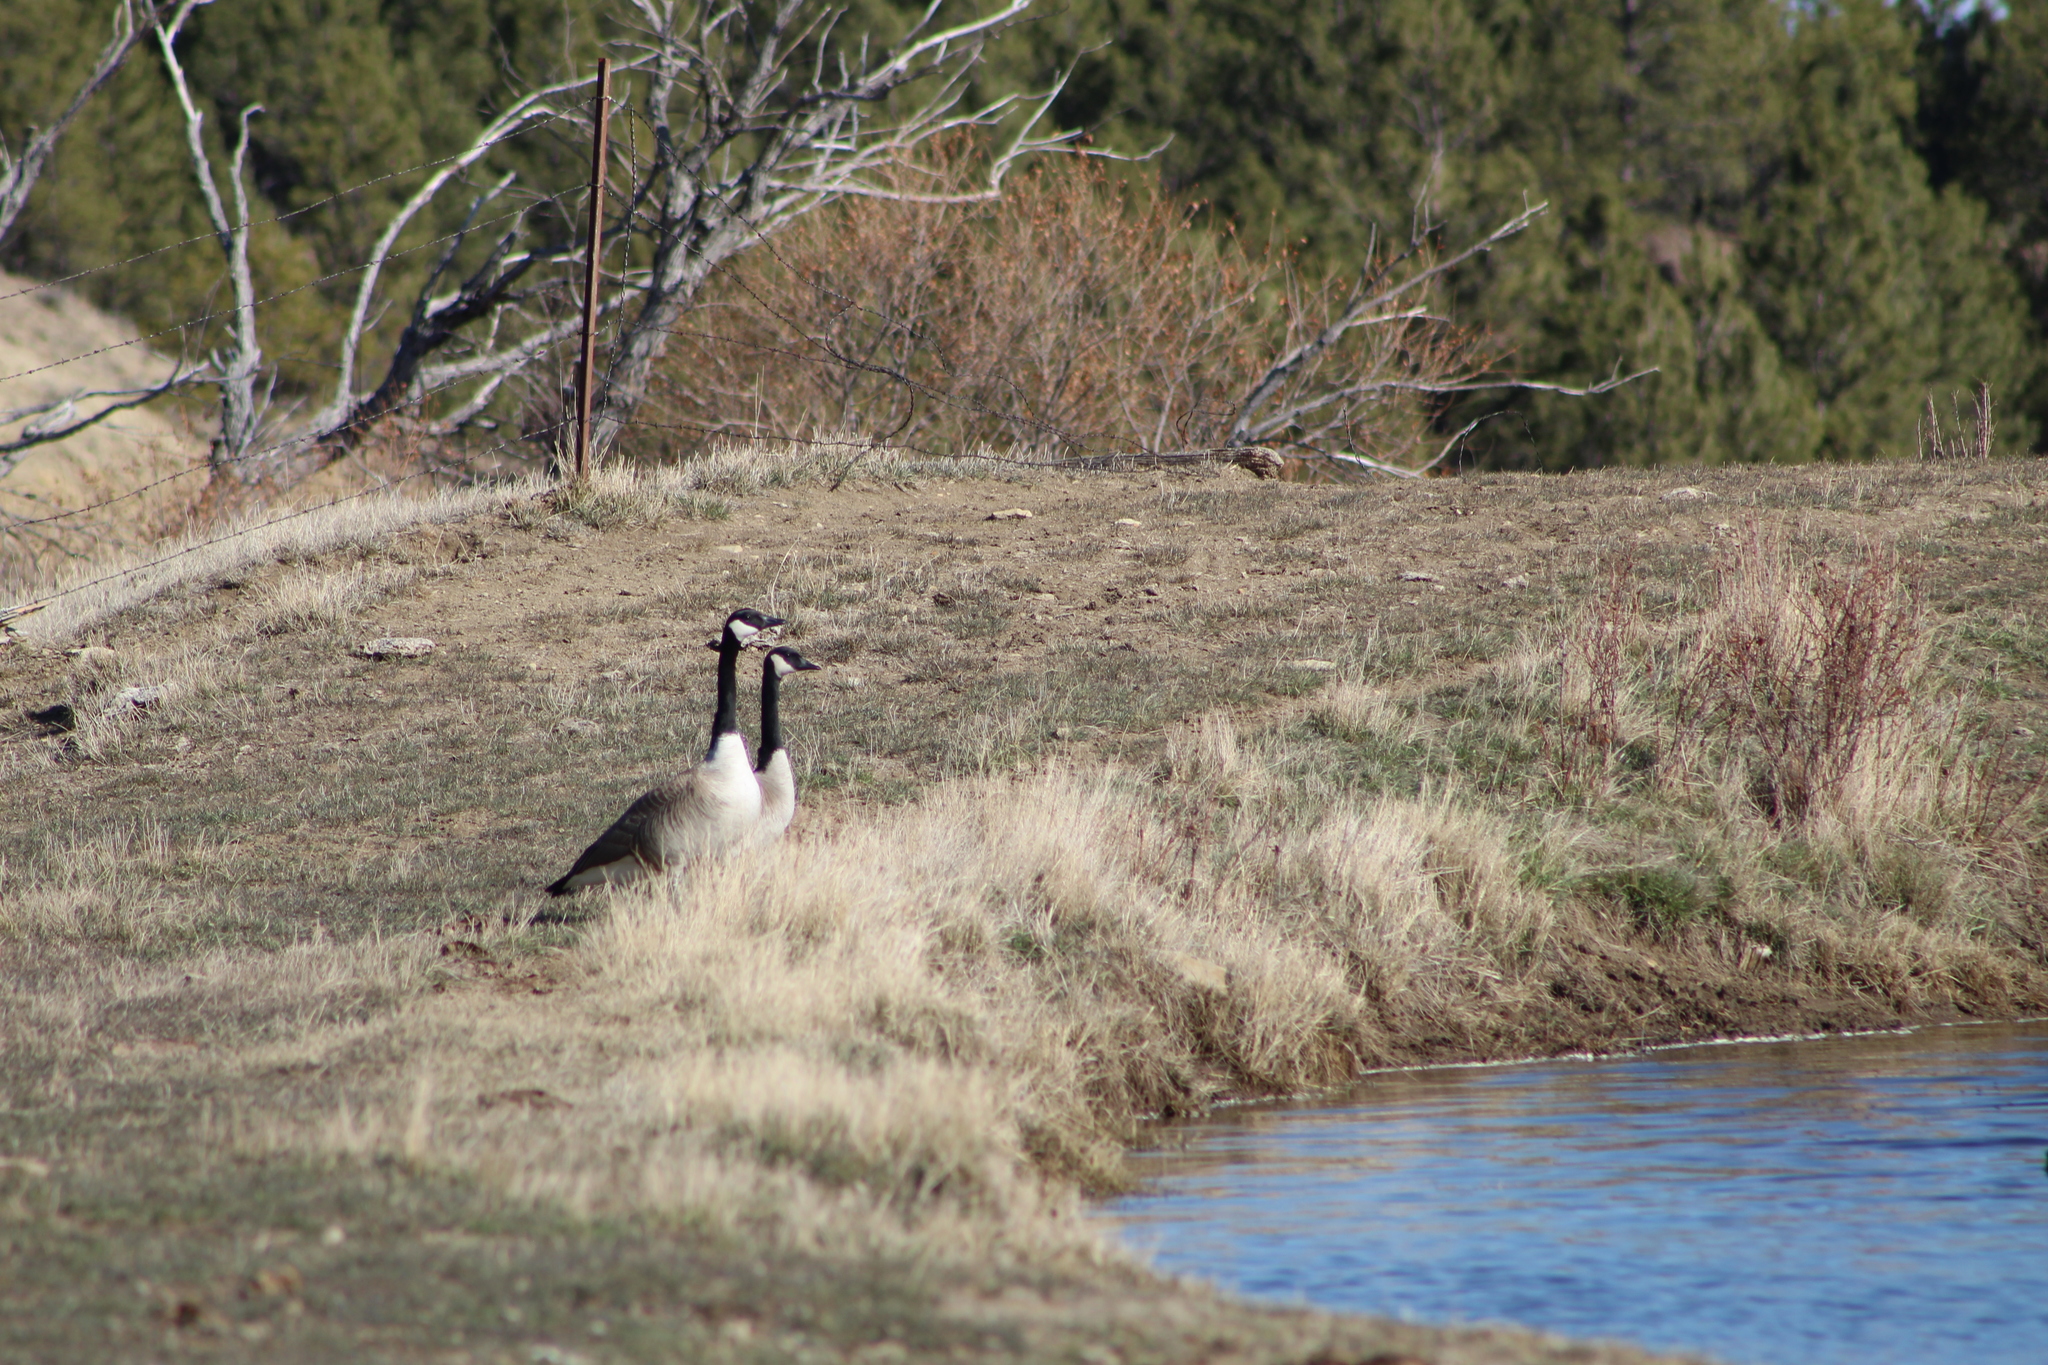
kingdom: Animalia
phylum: Chordata
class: Aves
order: Anseriformes
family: Anatidae
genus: Branta
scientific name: Branta canadensis
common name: Canada goose
